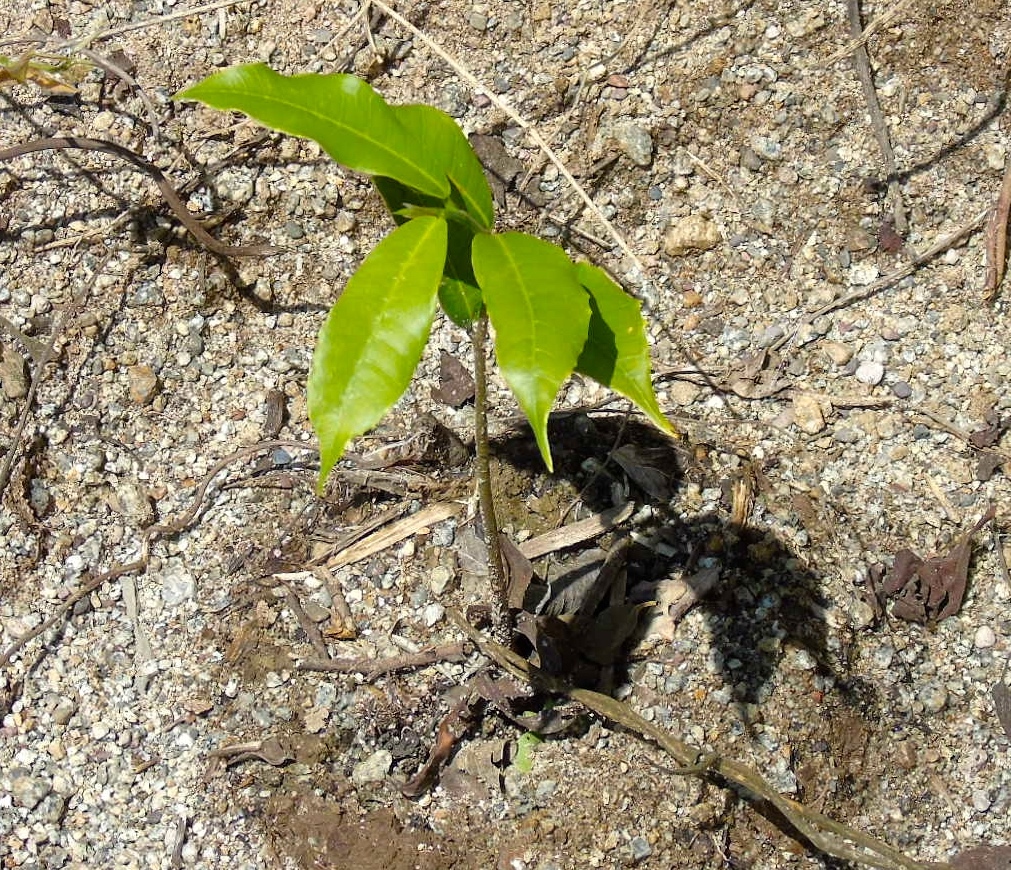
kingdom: Plantae
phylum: Tracheophyta
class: Magnoliopsida
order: Rosales
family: Moraceae
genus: Brosimum
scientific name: Brosimum alicastrum
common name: Breadnut
